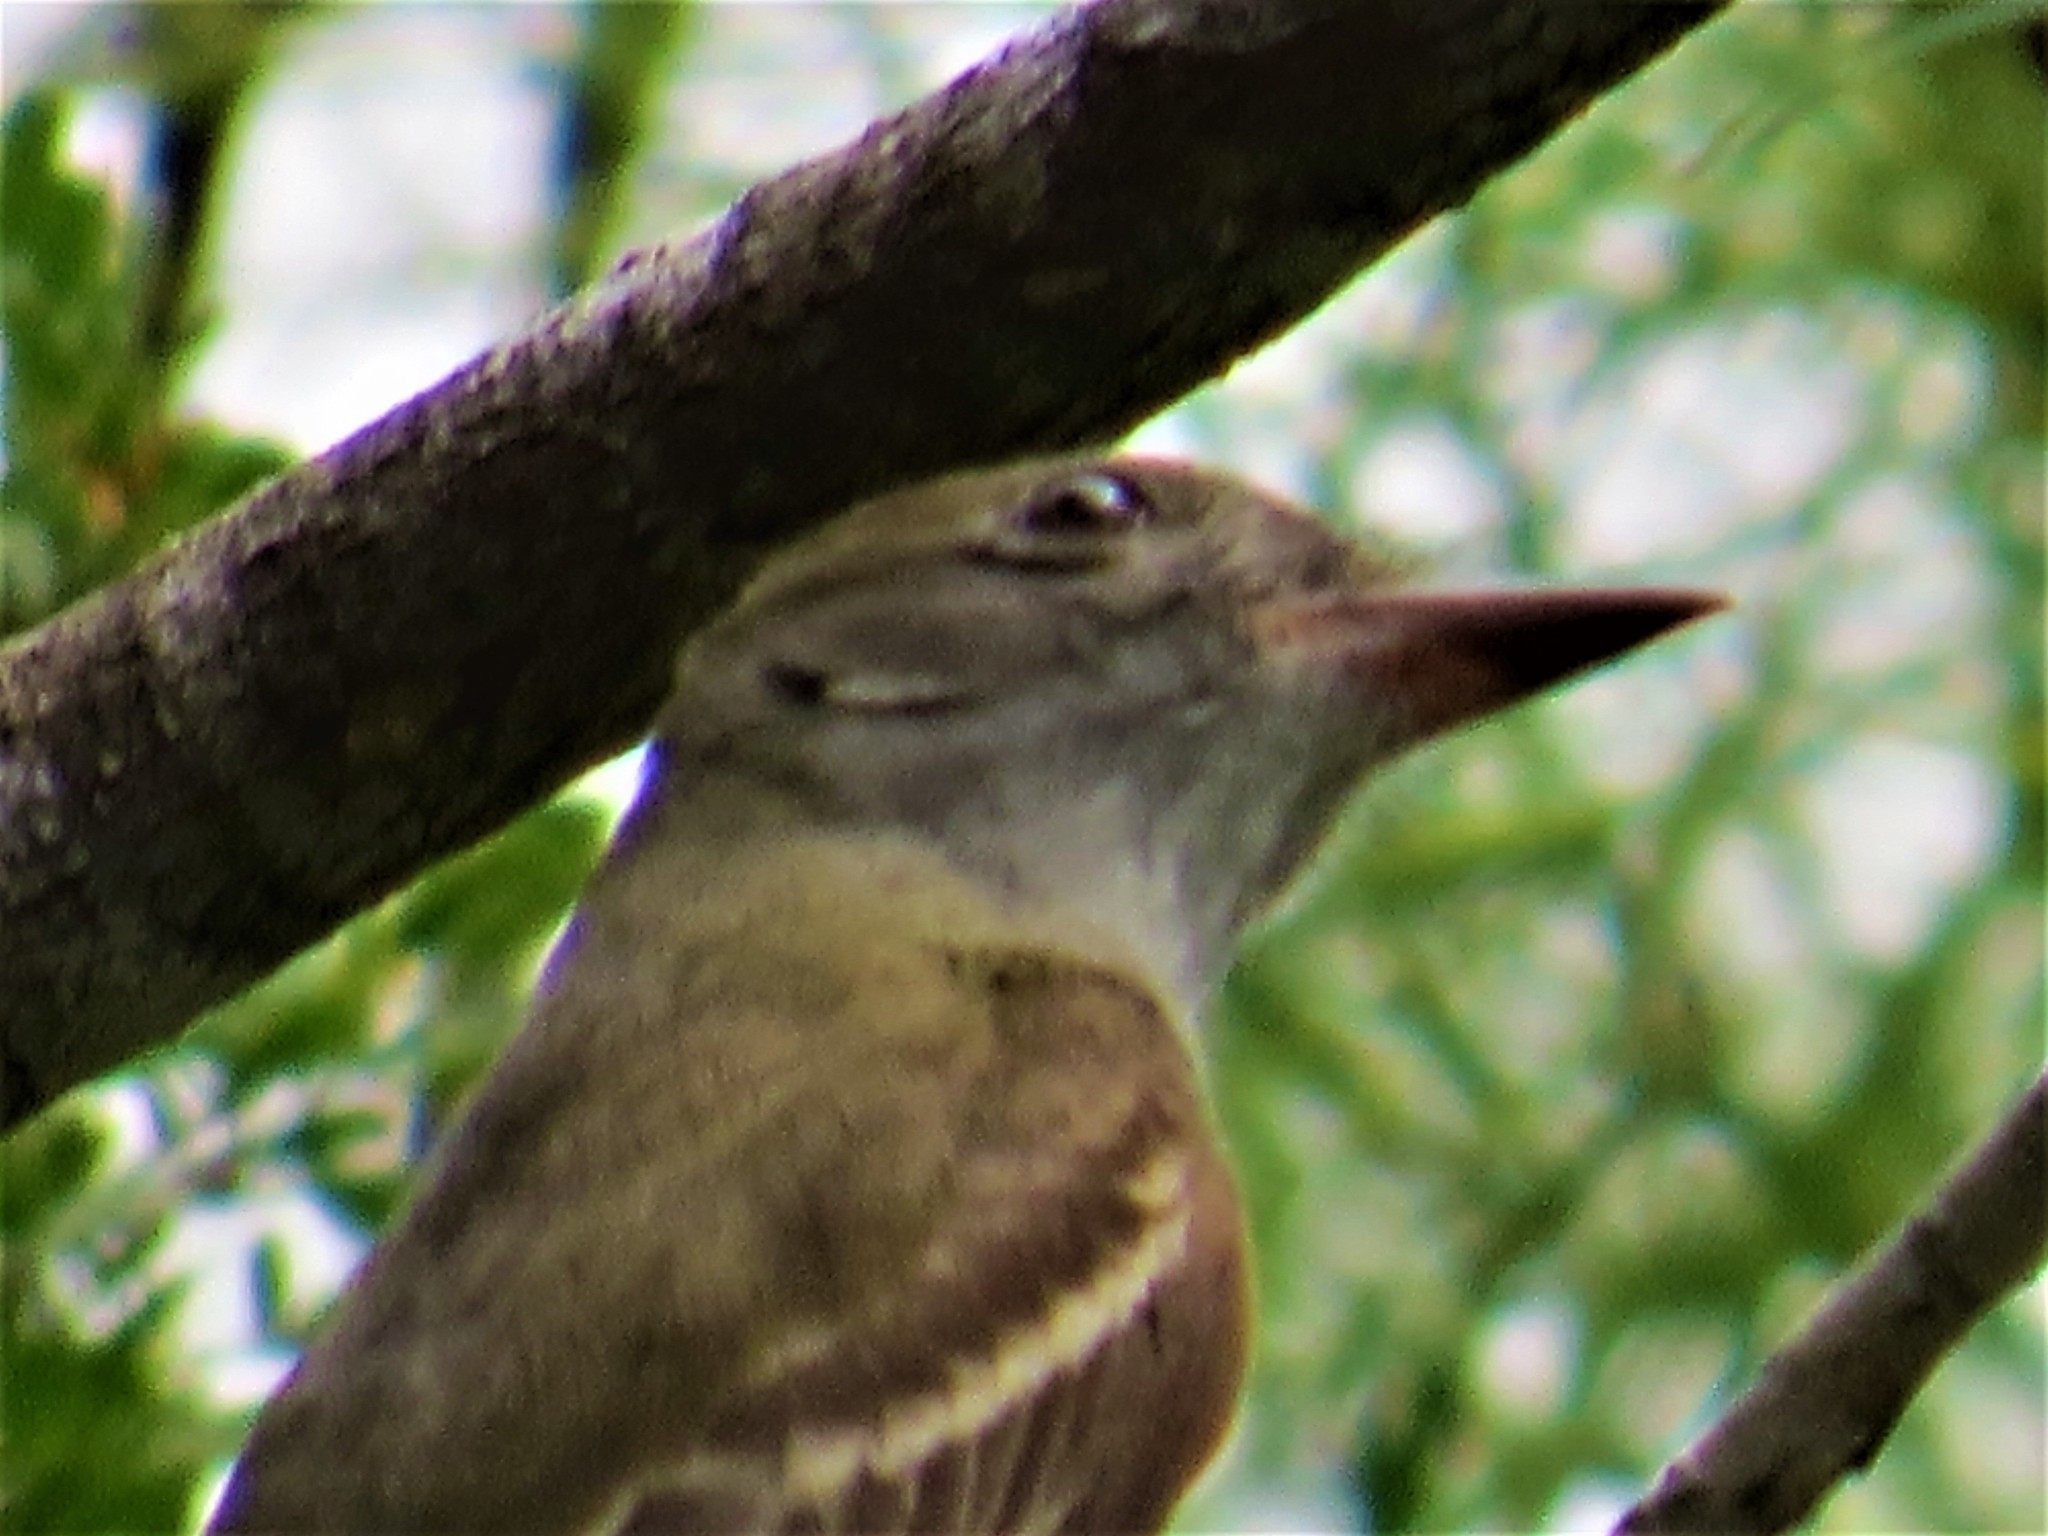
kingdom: Animalia
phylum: Chordata
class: Aves
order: Passeriformes
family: Tyrannidae
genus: Myiarchus
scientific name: Myiarchus crinitus
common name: Great crested flycatcher
